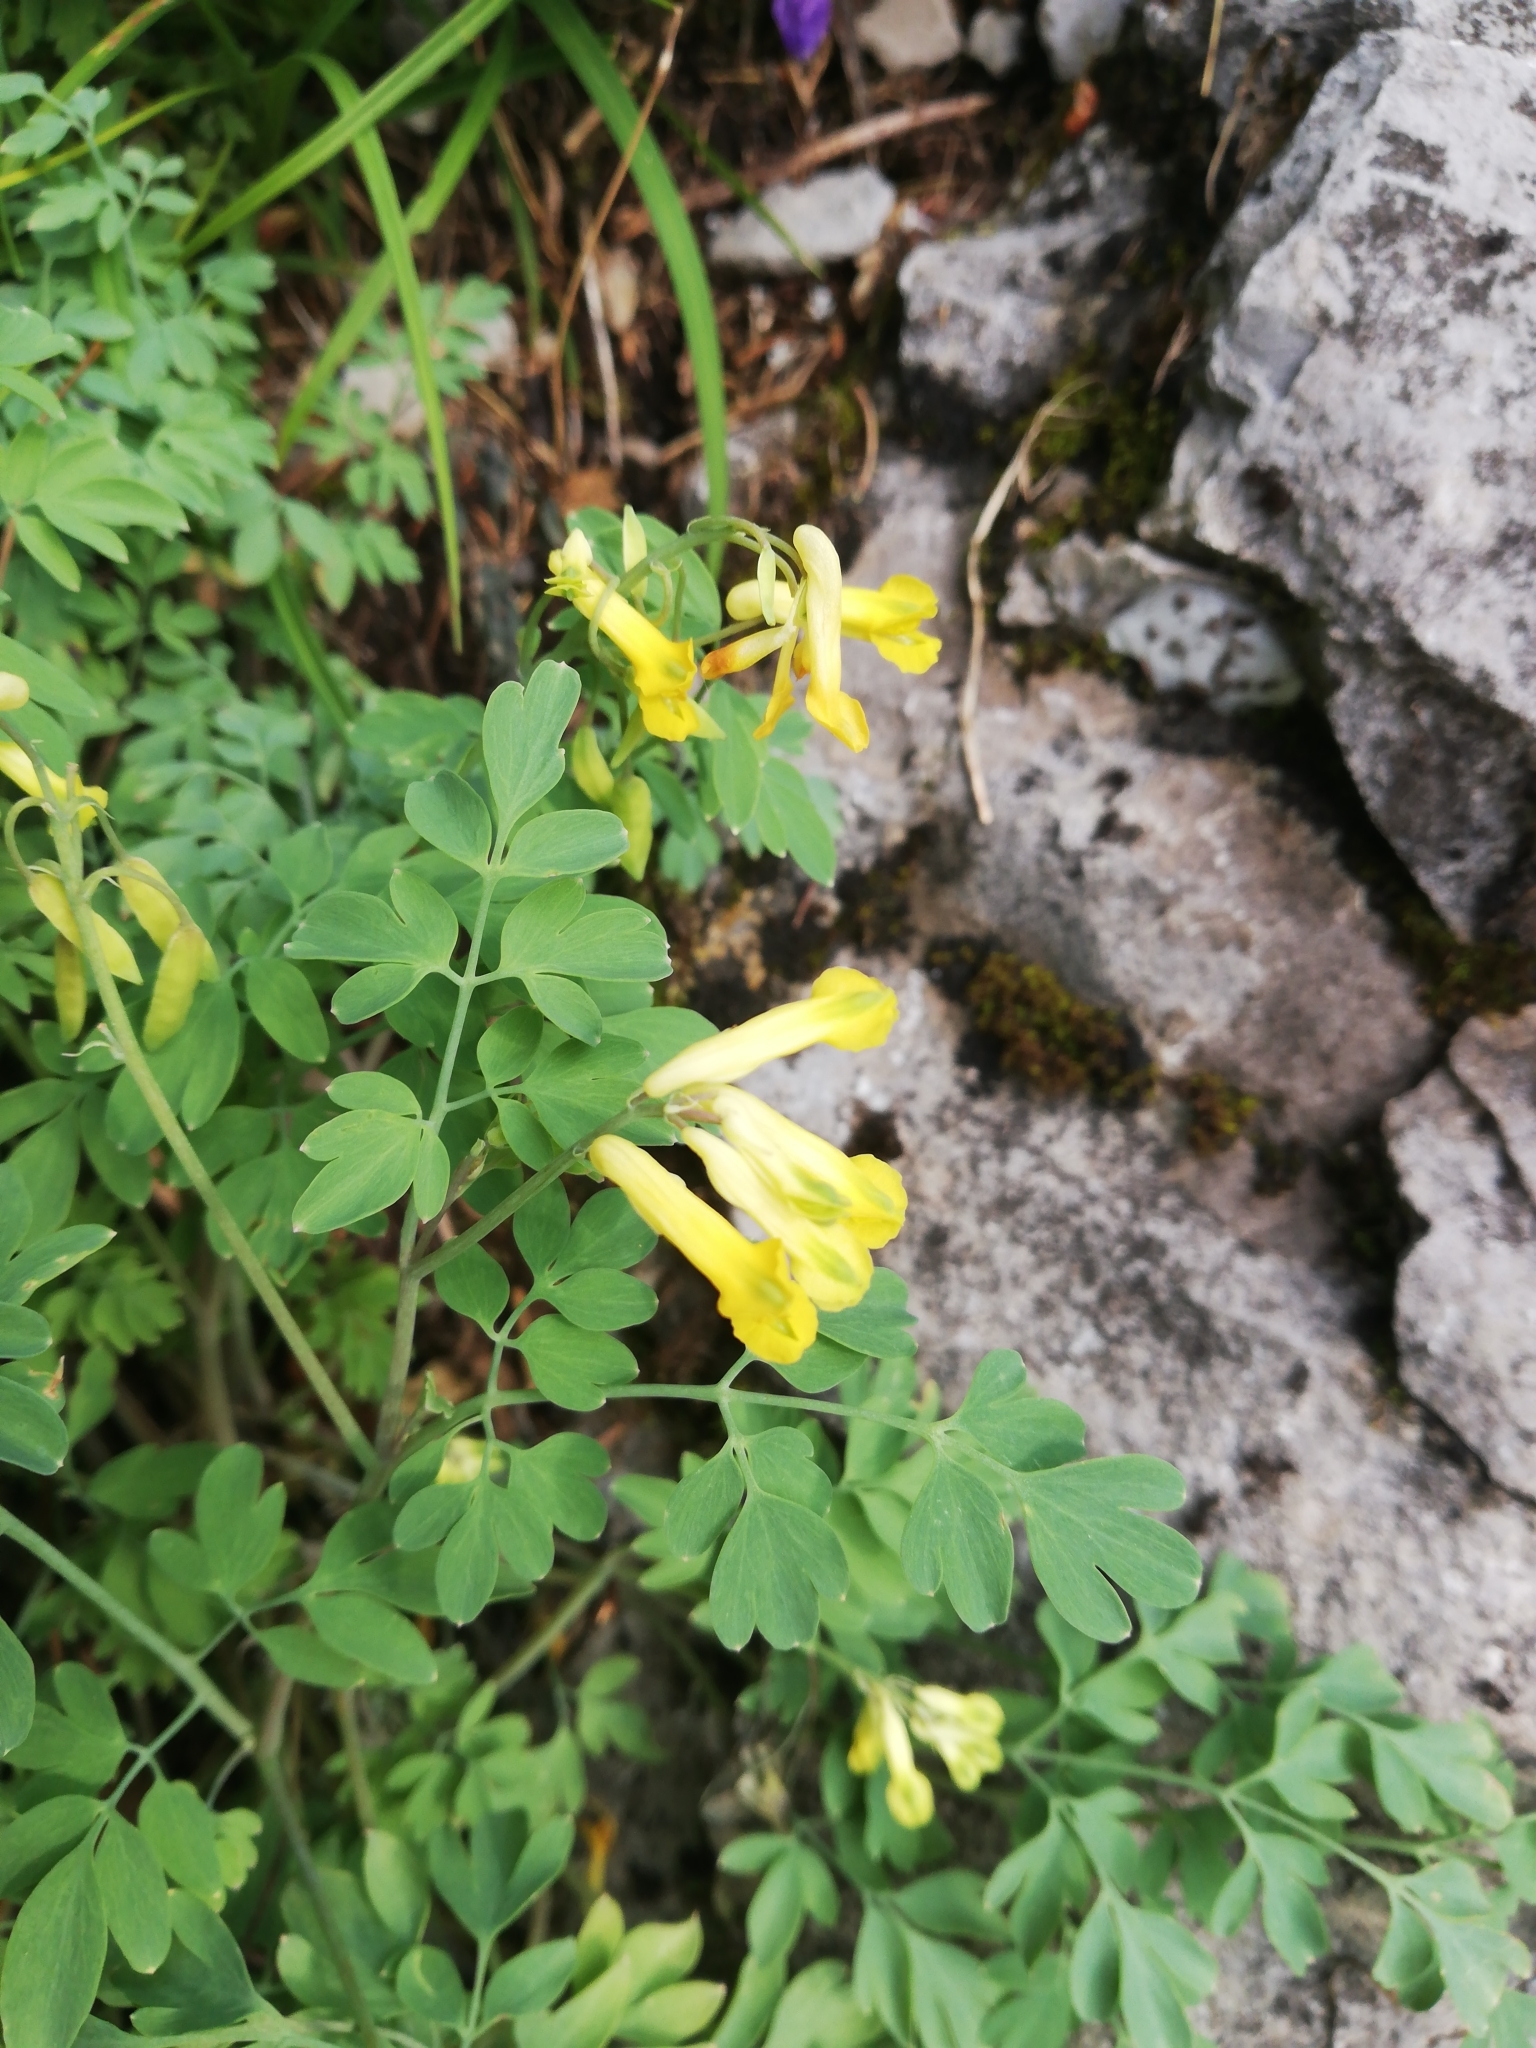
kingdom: Plantae
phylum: Tracheophyta
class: Magnoliopsida
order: Ranunculales
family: Papaveraceae
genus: Pseudofumaria
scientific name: Pseudofumaria lutea
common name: Yellow corydalis
